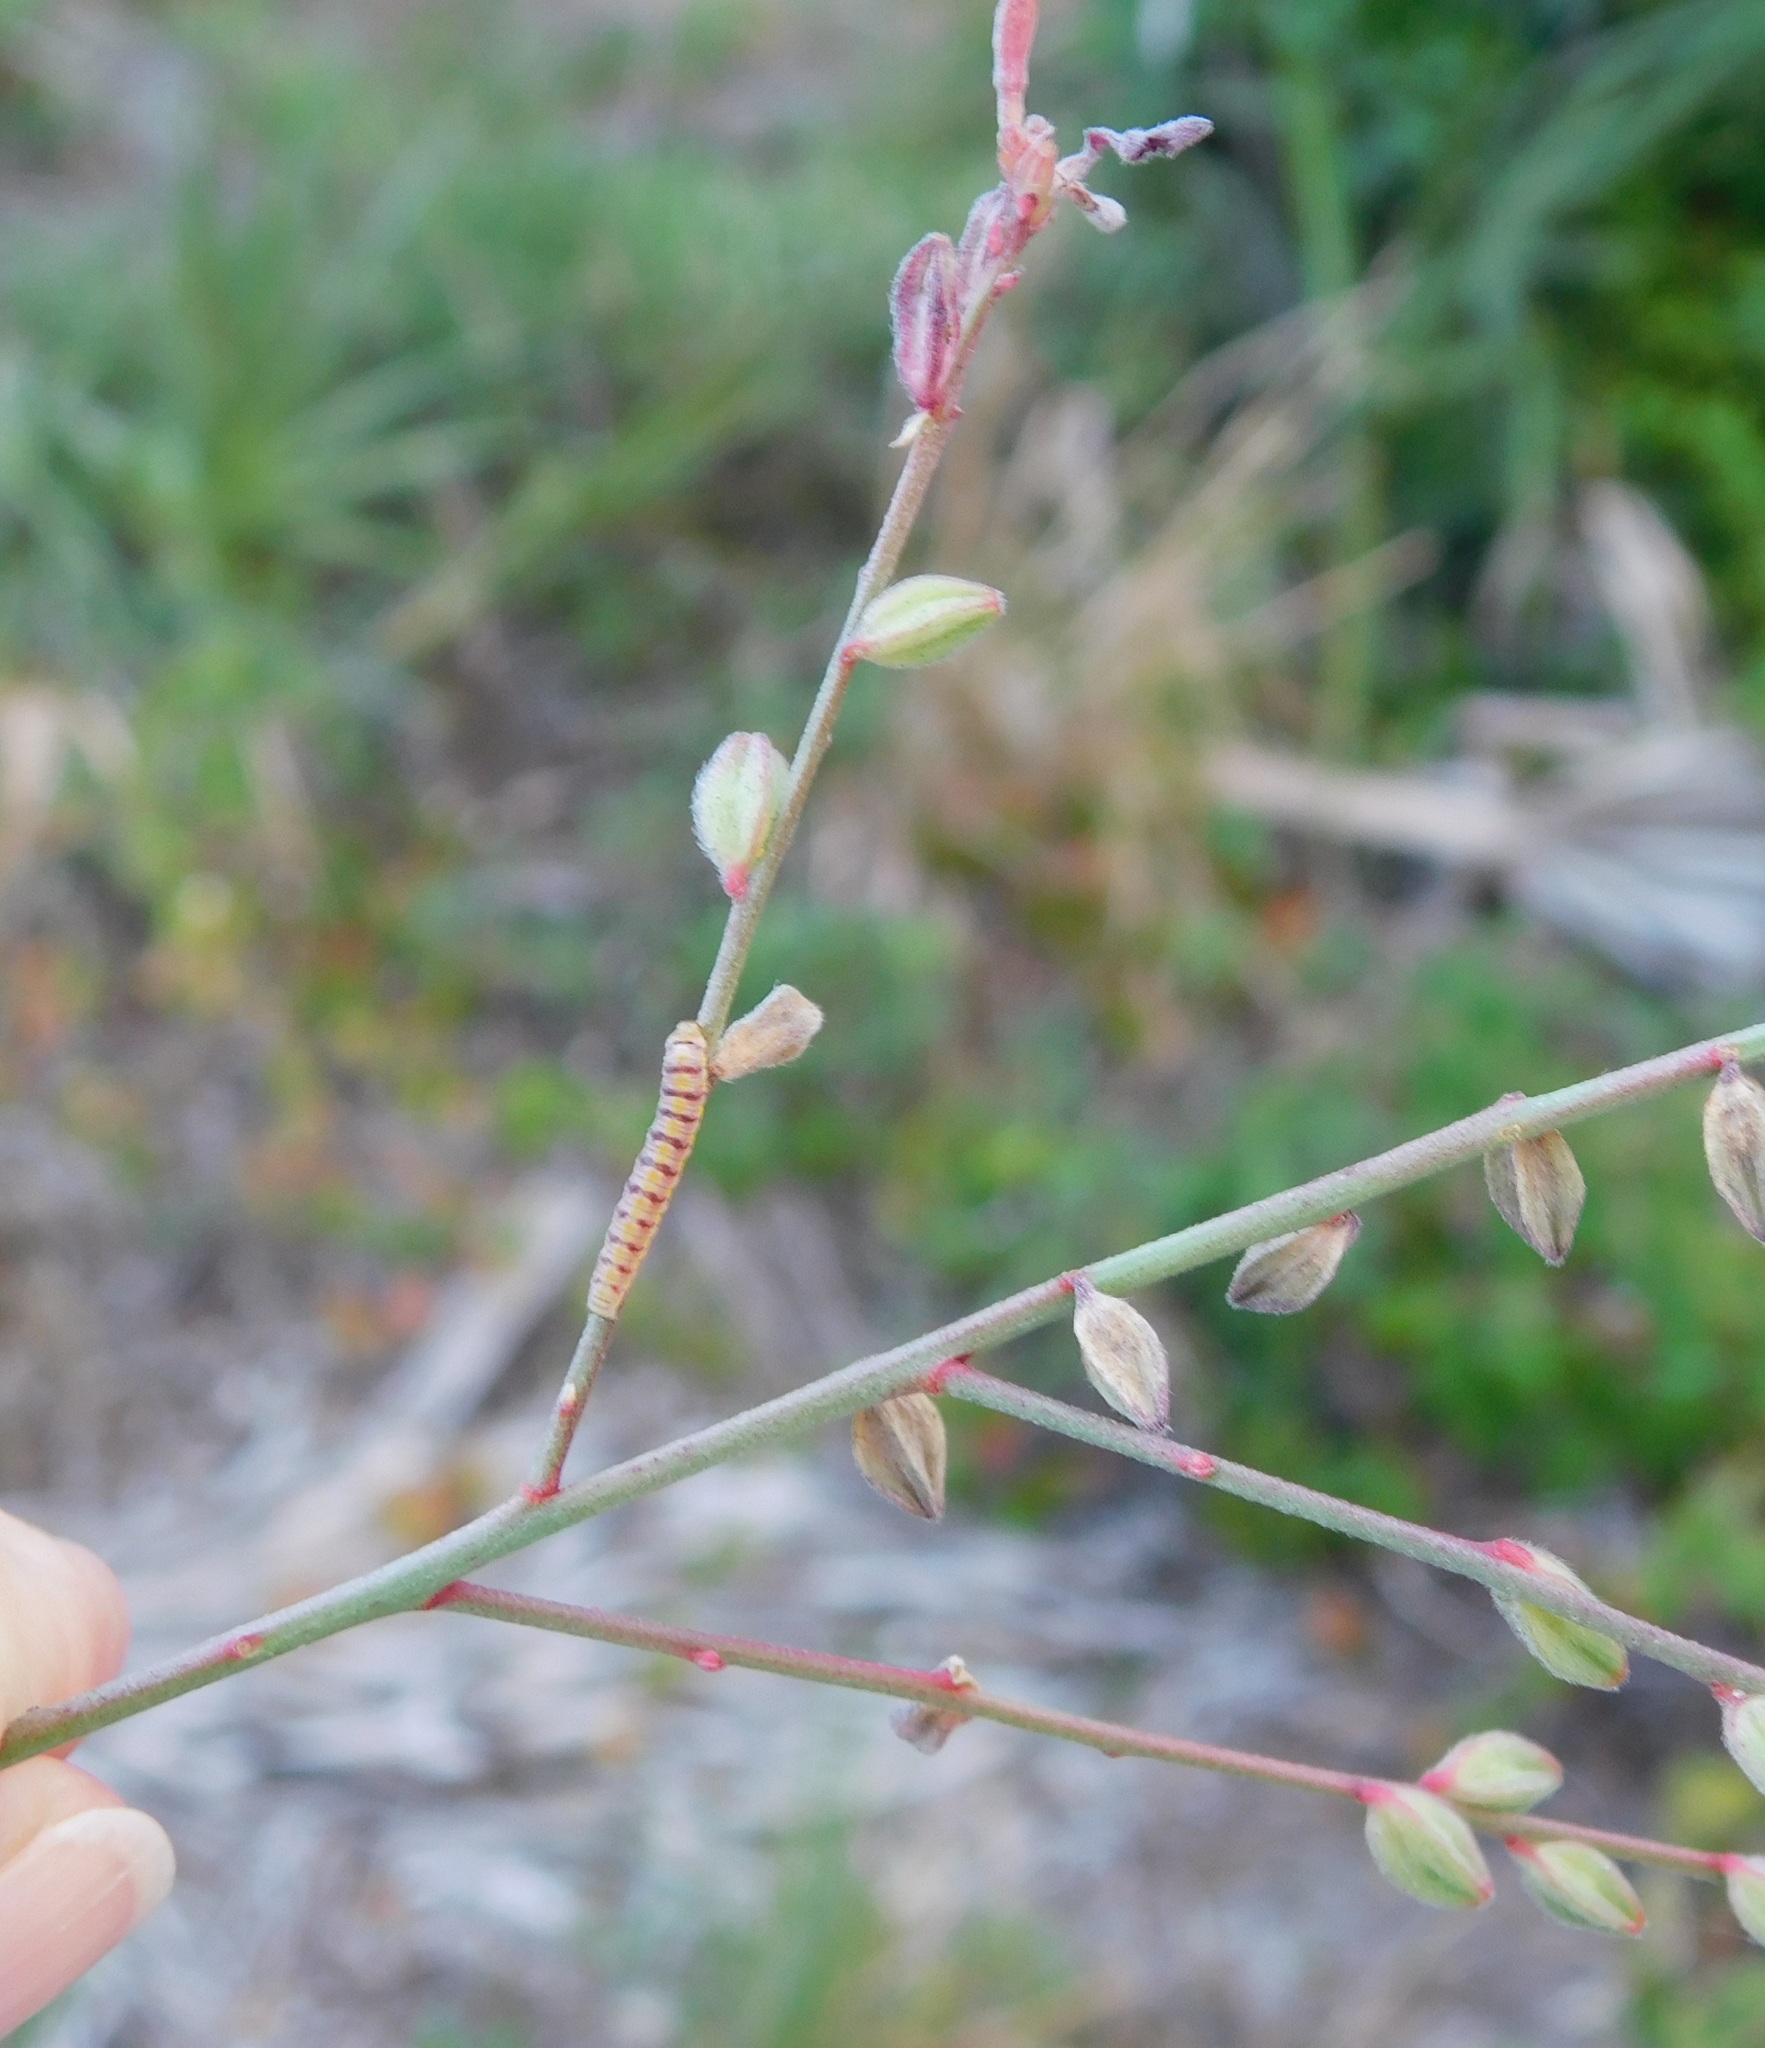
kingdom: Animalia
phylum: Arthropoda
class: Insecta
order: Lepidoptera
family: Noctuidae
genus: Schinia
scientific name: Schinia gaurae
